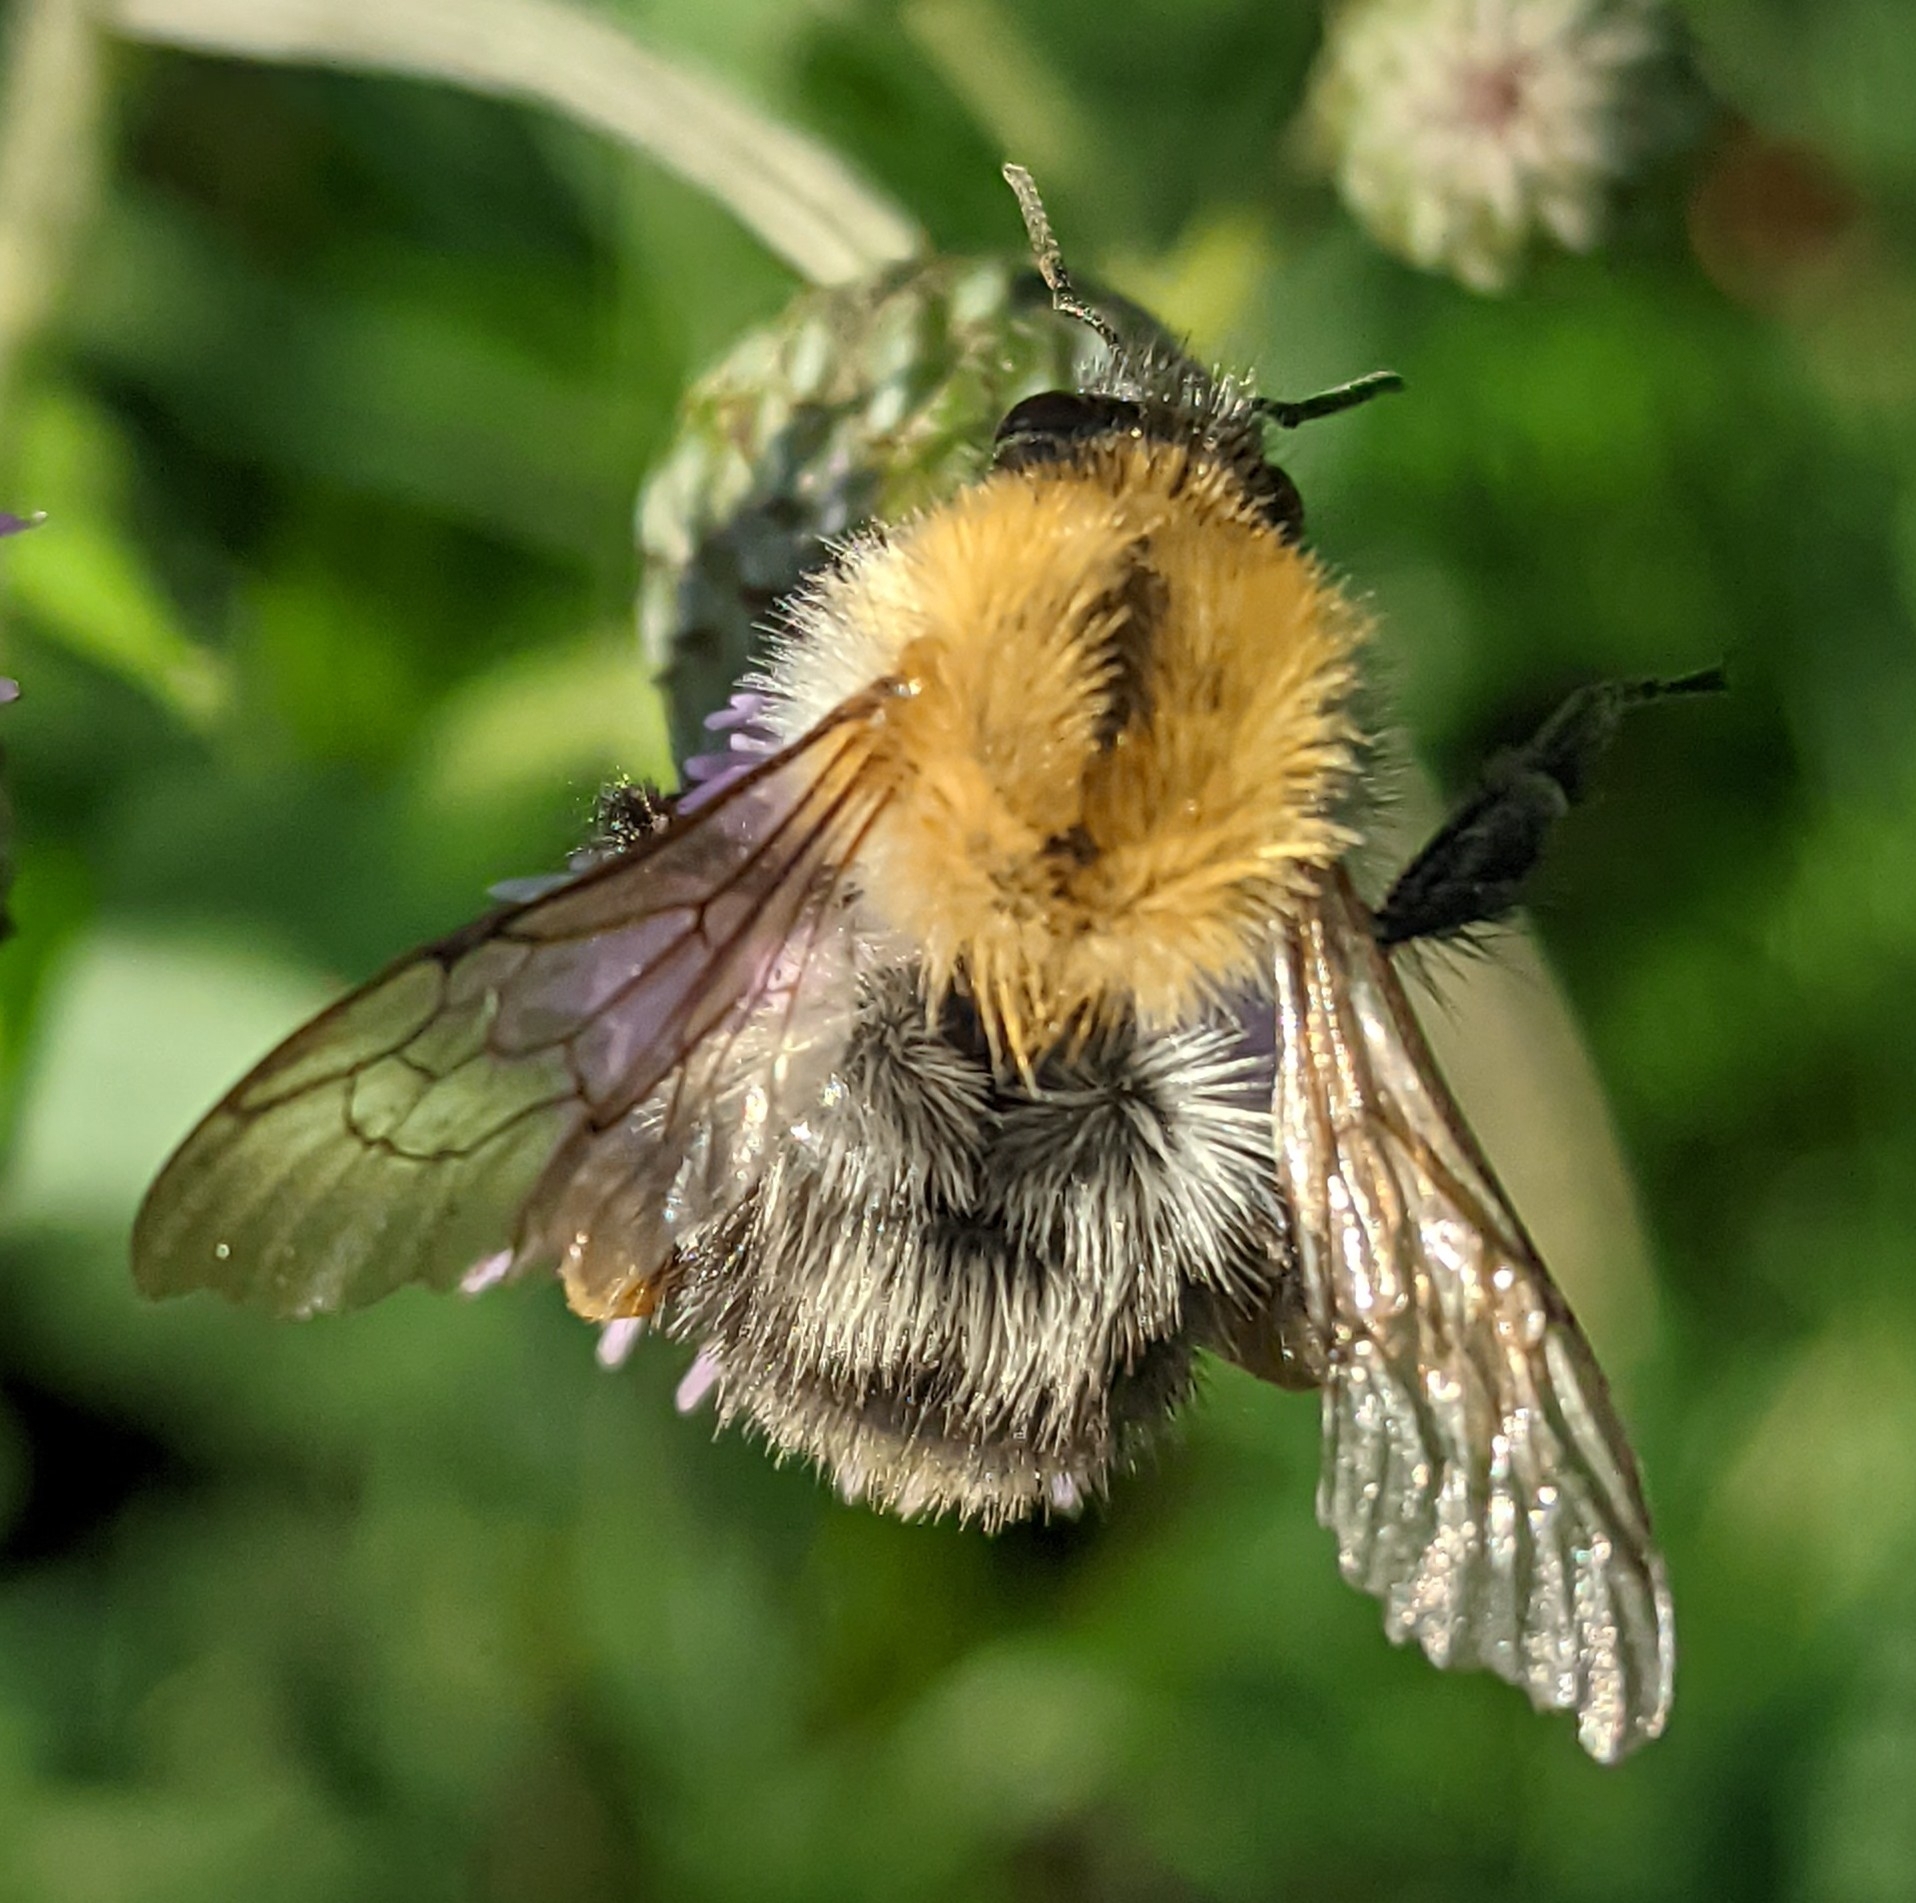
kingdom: Animalia
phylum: Arthropoda
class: Insecta
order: Hymenoptera
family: Apidae
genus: Bombus
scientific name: Bombus pascuorum
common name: Common carder bee
